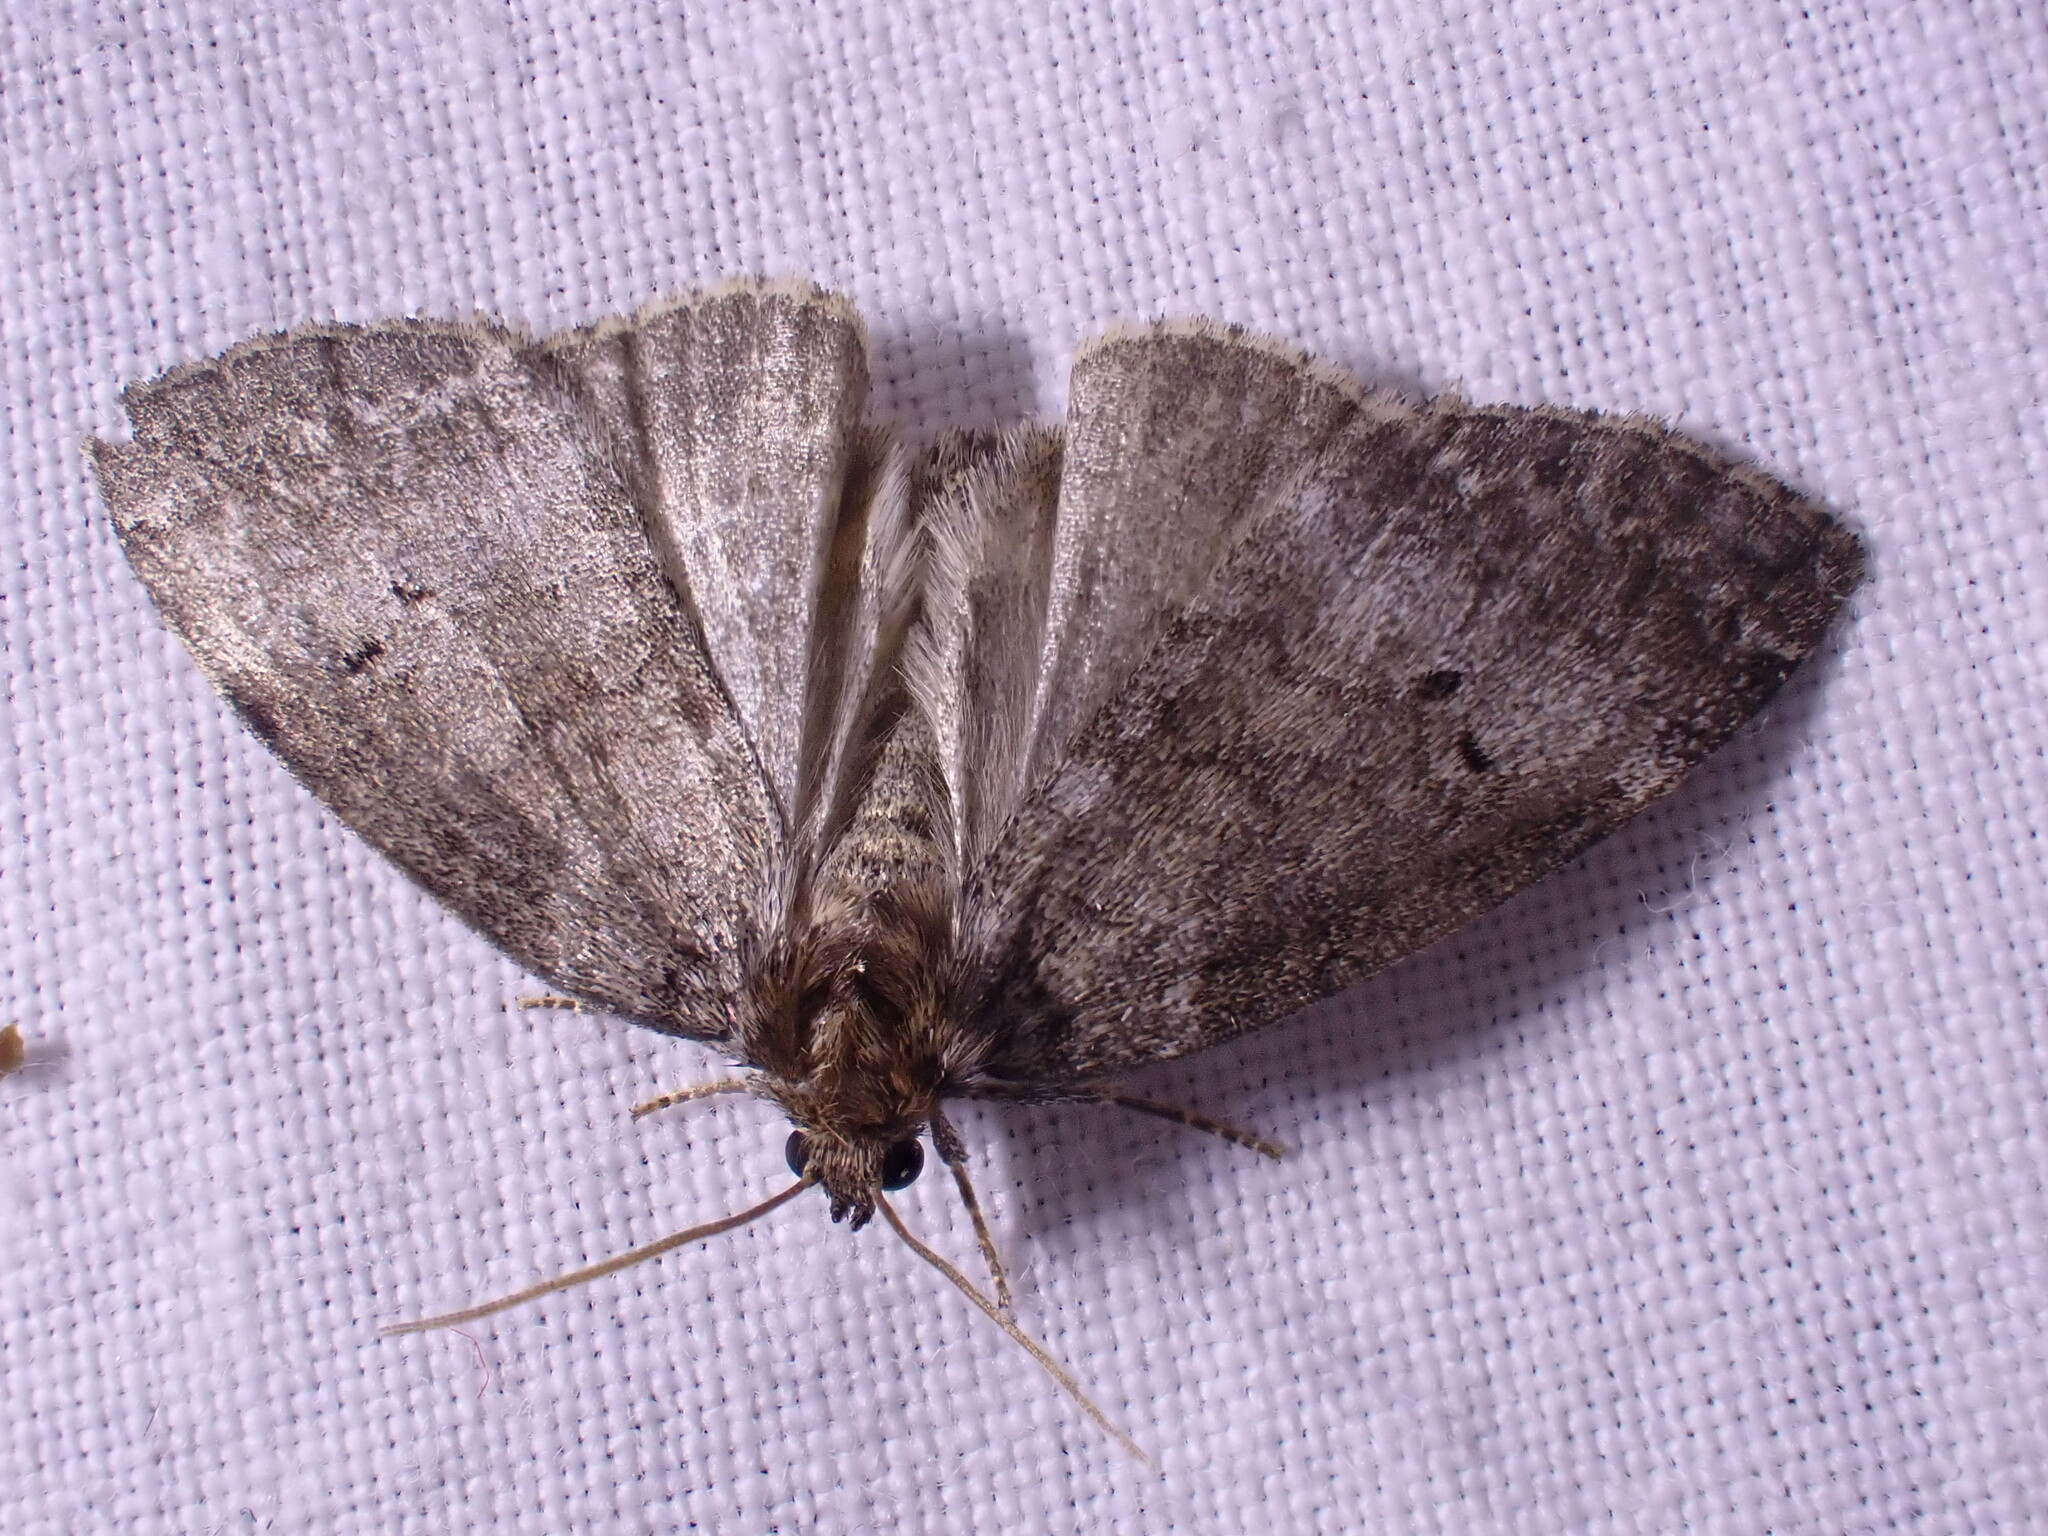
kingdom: Animalia
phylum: Arthropoda
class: Insecta
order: Lepidoptera
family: Drepanidae
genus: Ochropacha
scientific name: Ochropacha duplaris
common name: Common lutestring
